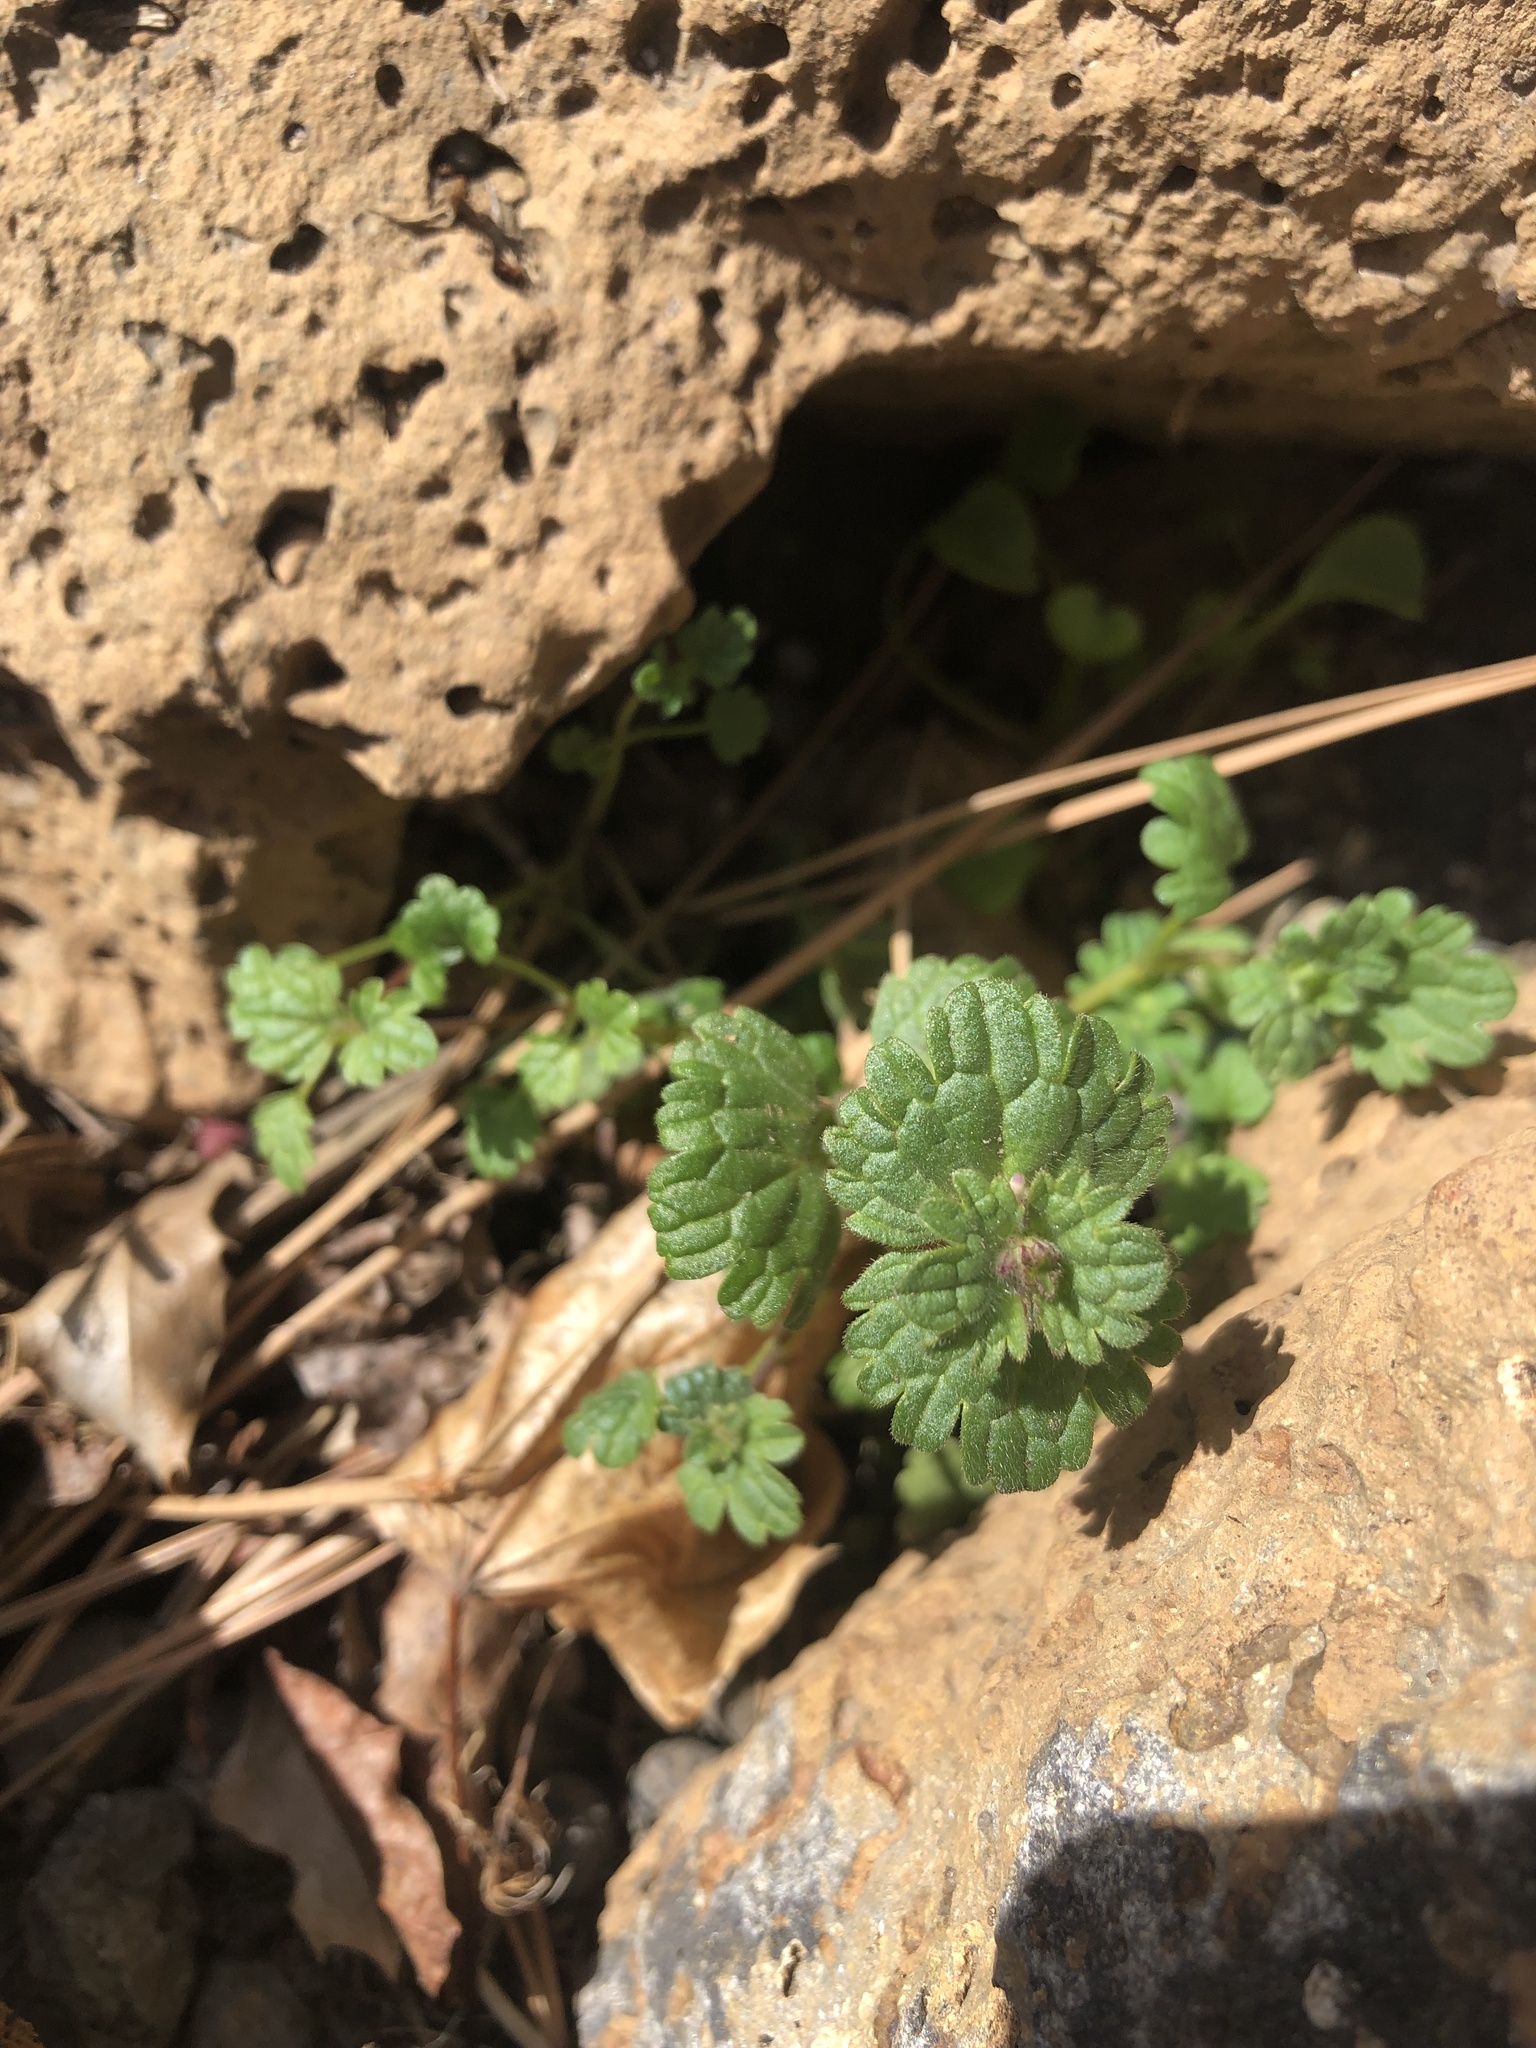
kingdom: Plantae
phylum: Tracheophyta
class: Magnoliopsida
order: Lamiales
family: Lamiaceae
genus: Lamium
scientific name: Lamium amplexicaule
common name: Henbit dead-nettle
